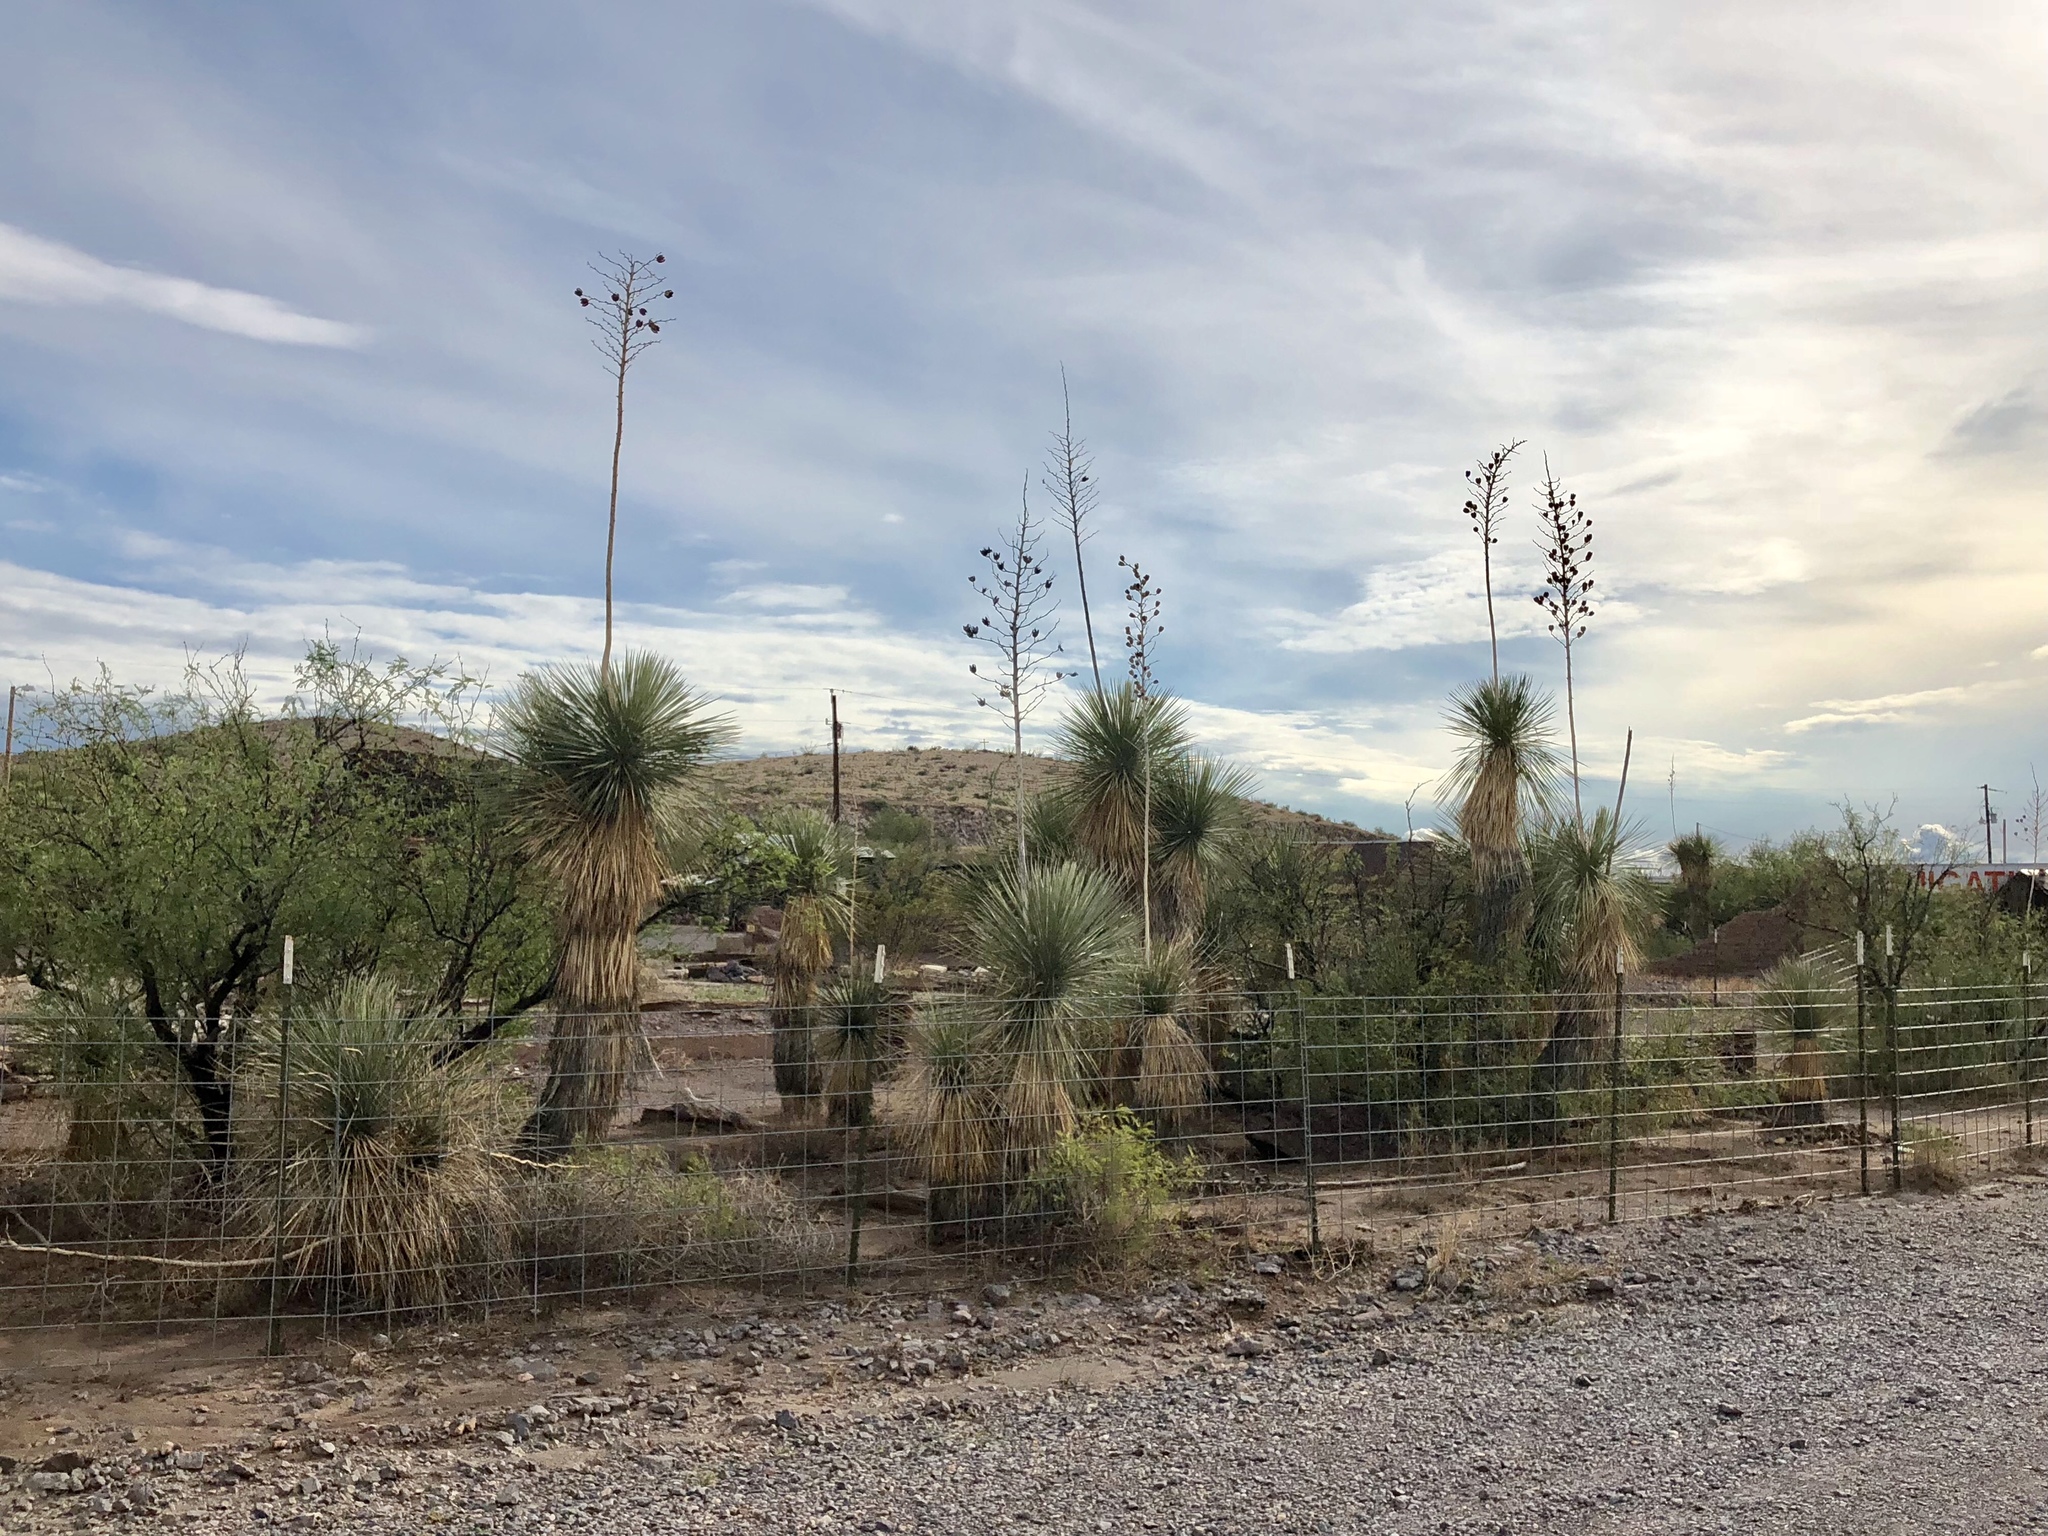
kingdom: Plantae
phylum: Tracheophyta
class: Liliopsida
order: Asparagales
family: Asparagaceae
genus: Yucca
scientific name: Yucca elata
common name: Palmella
